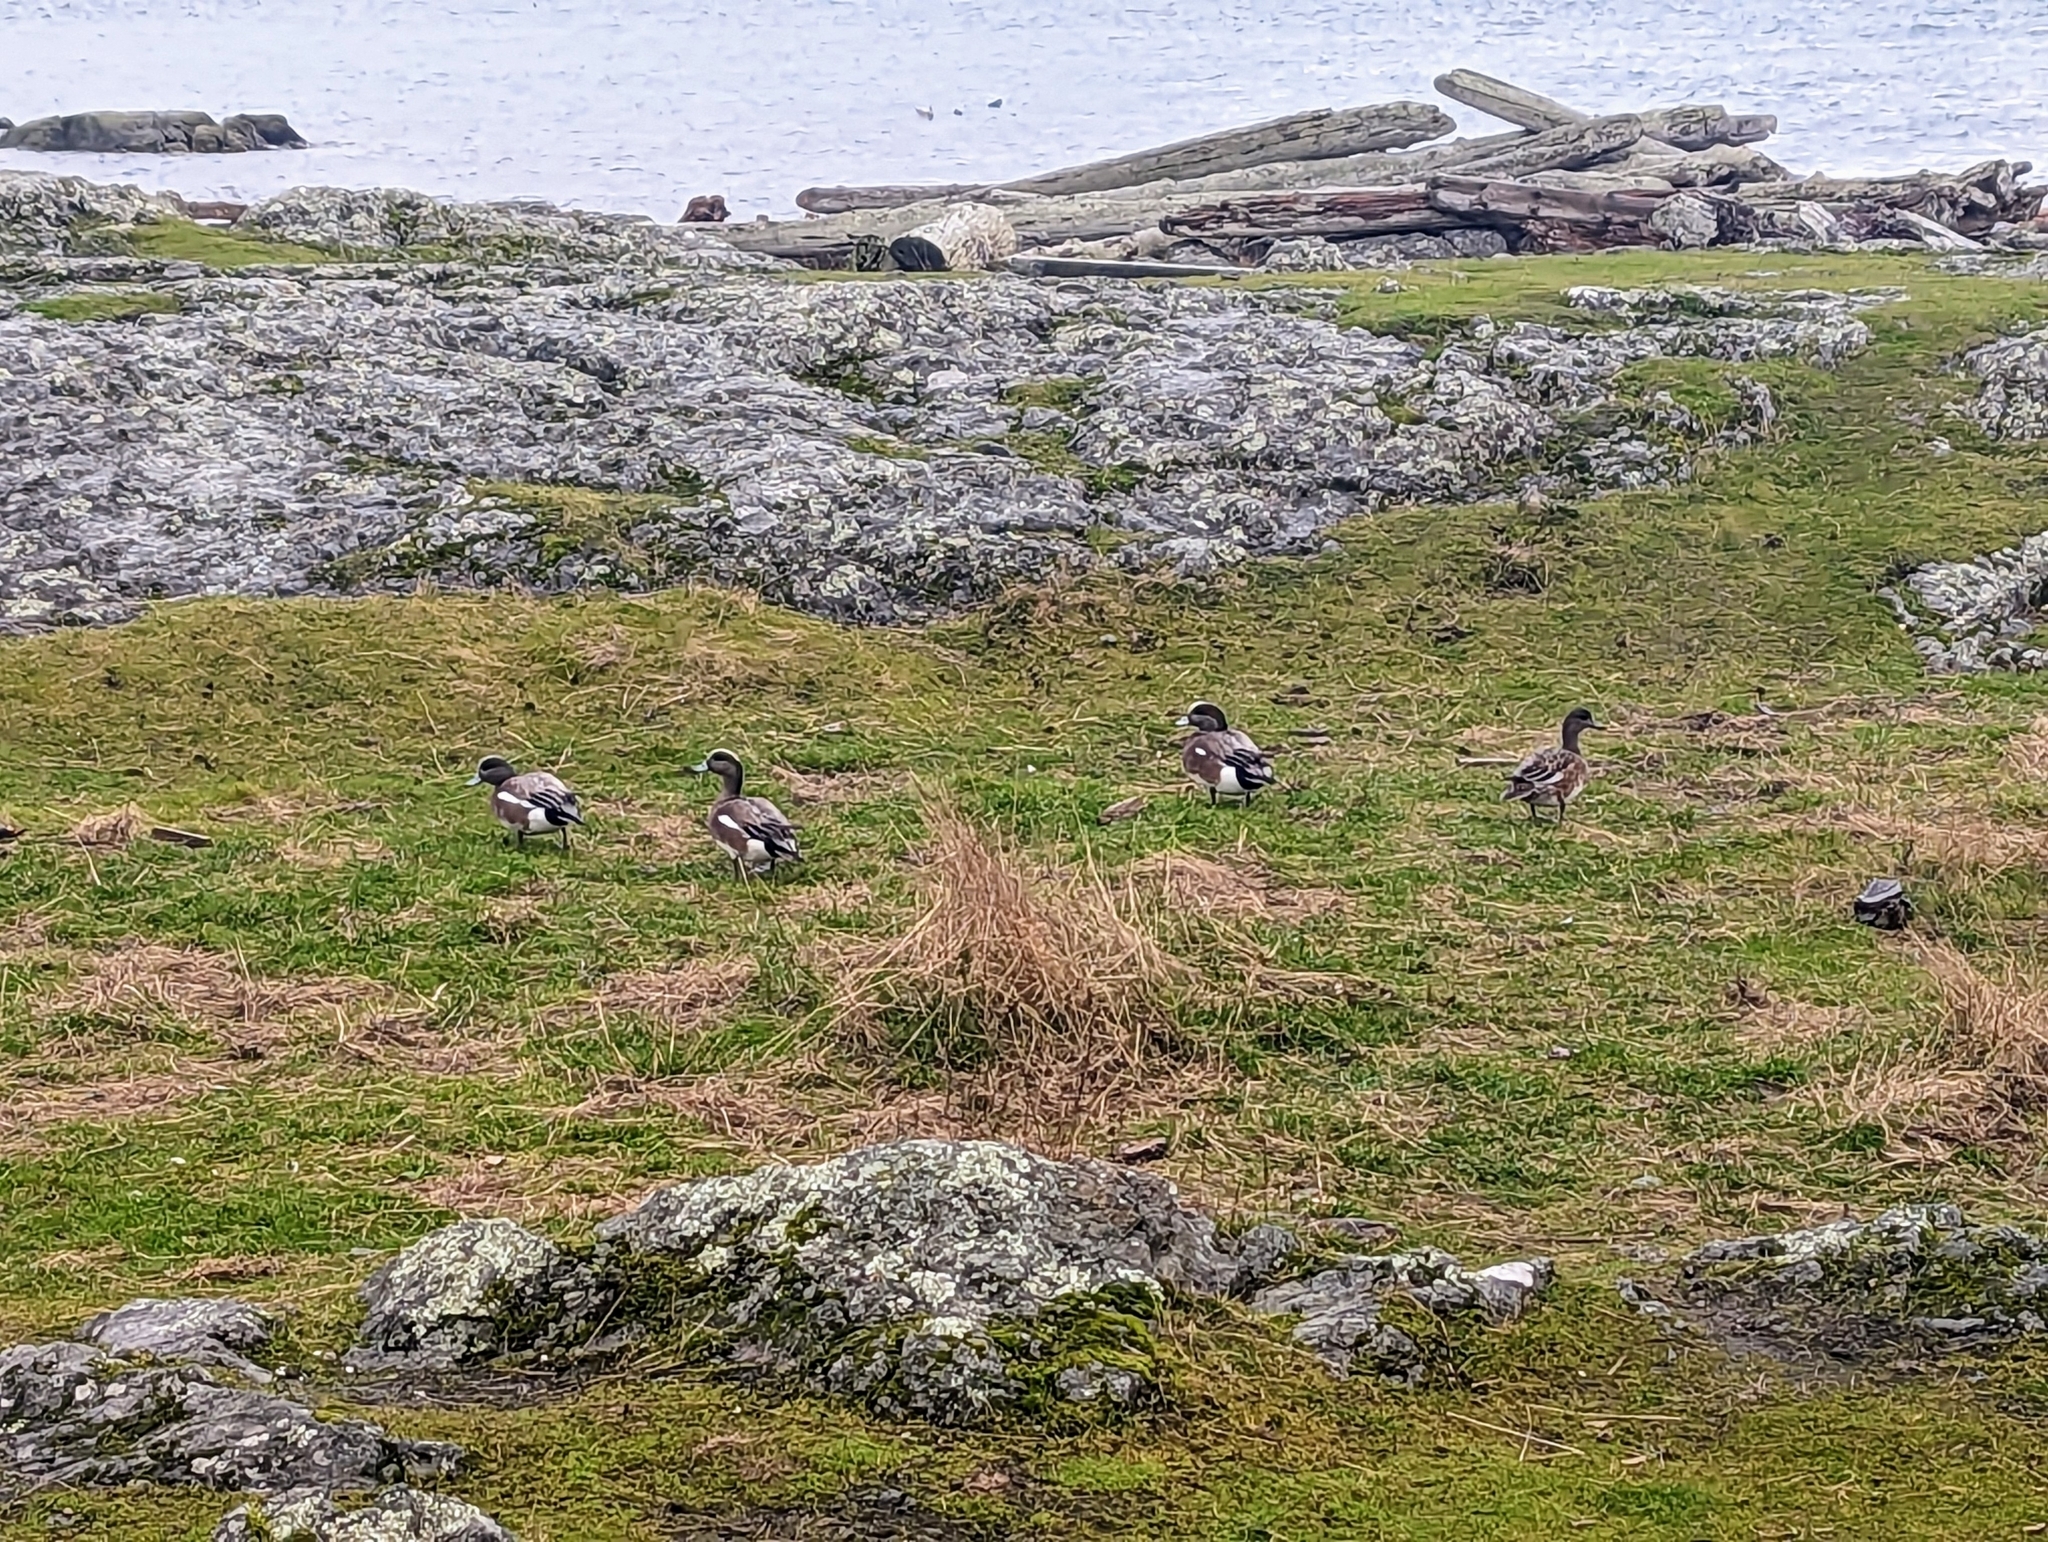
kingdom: Animalia
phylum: Chordata
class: Aves
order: Anseriformes
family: Anatidae
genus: Mareca
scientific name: Mareca americana
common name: American wigeon
